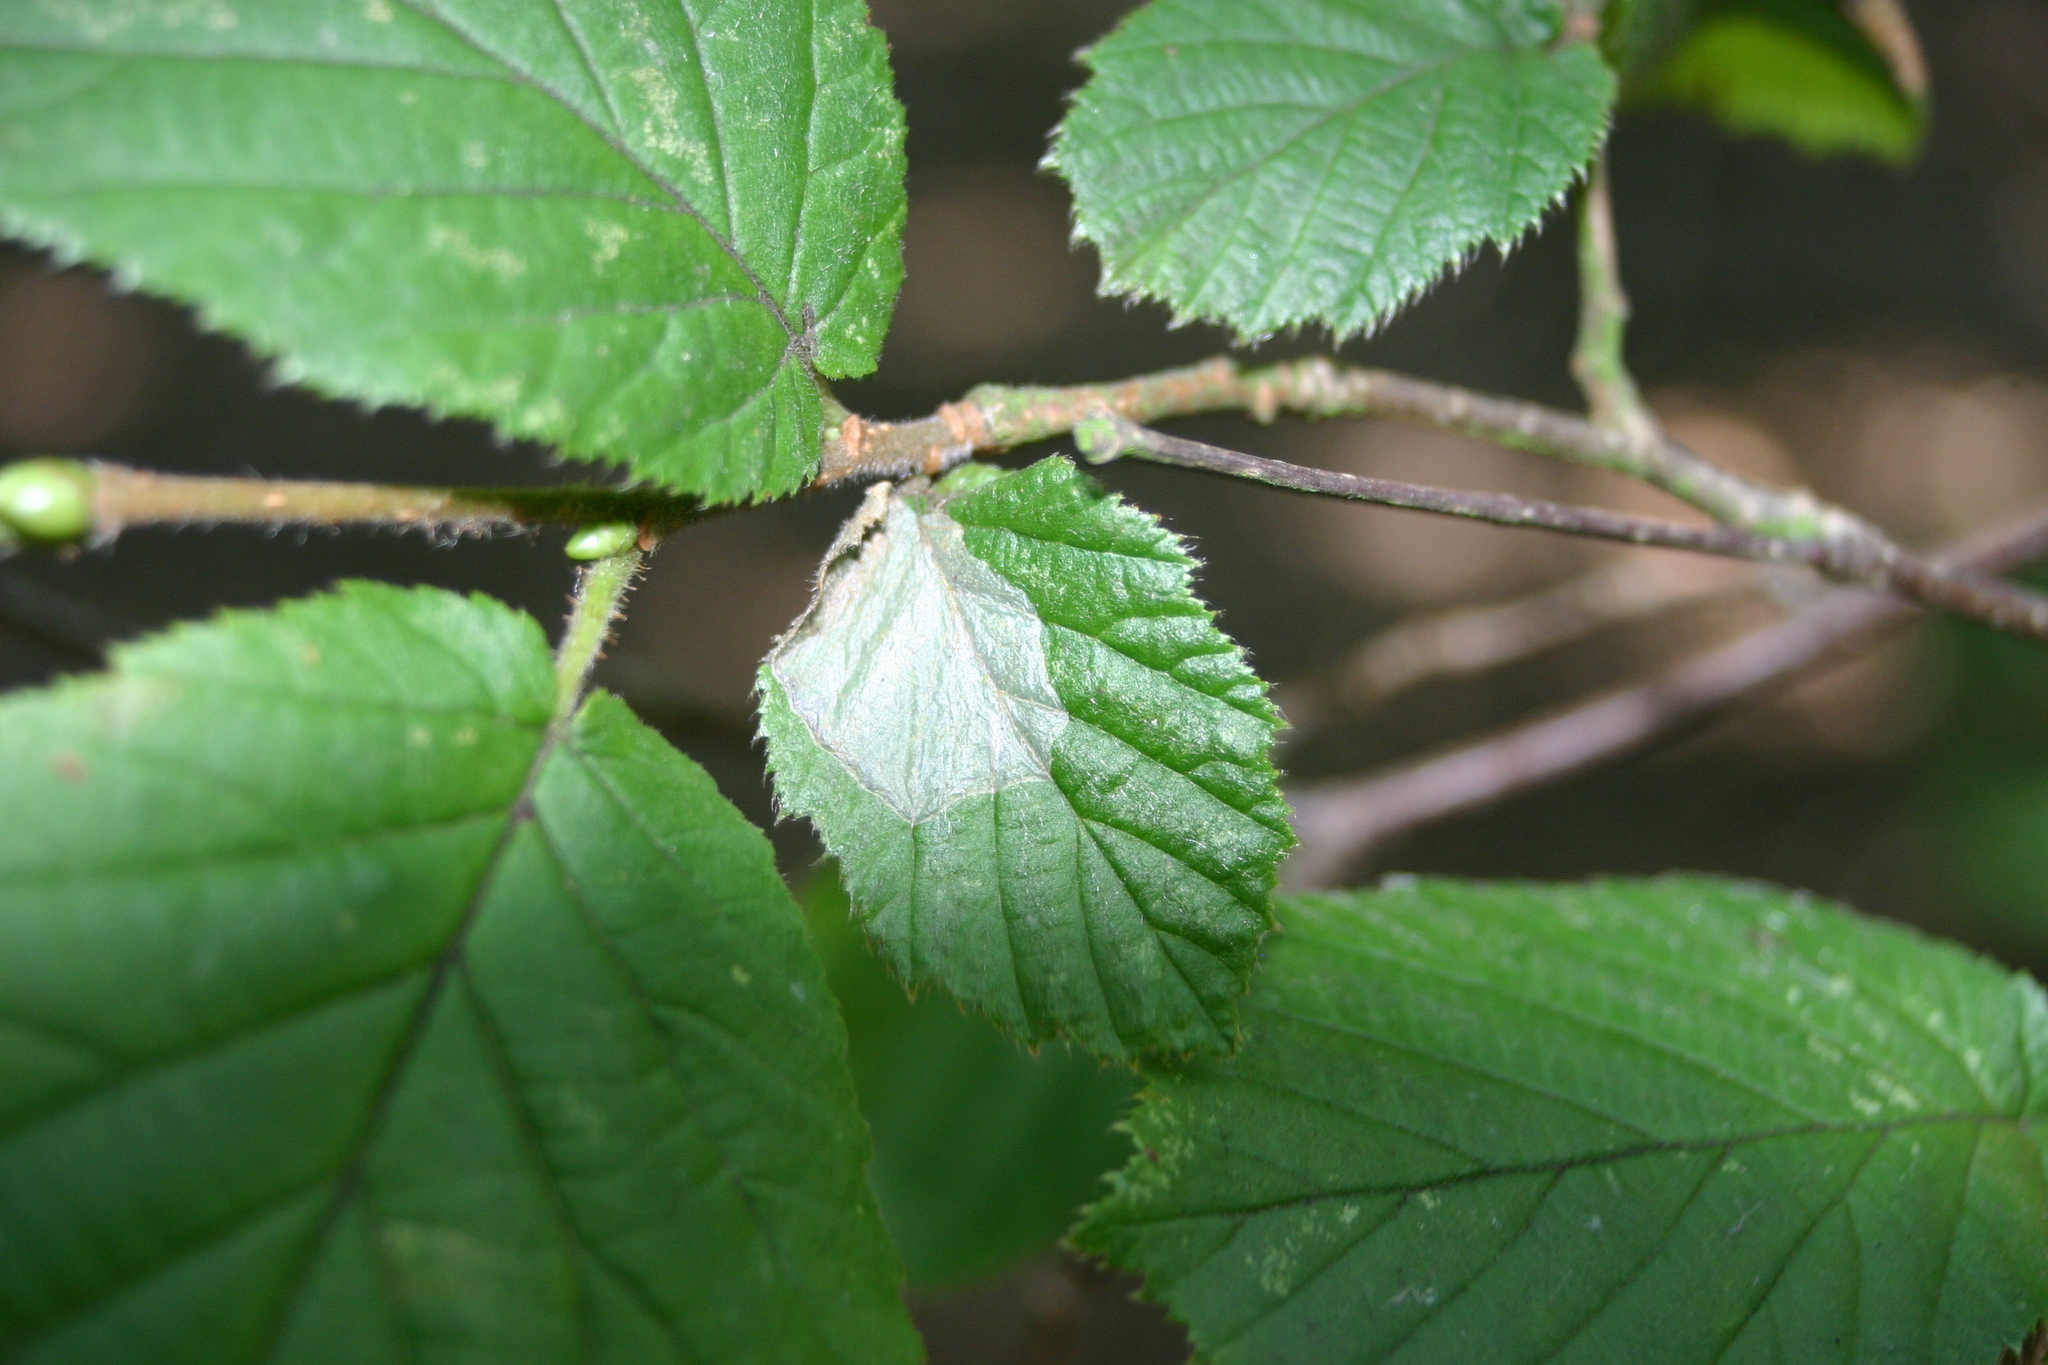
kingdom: Plantae
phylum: Tracheophyta
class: Magnoliopsida
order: Fagales
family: Betulaceae
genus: Corylus
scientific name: Corylus avellana
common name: European hazel
